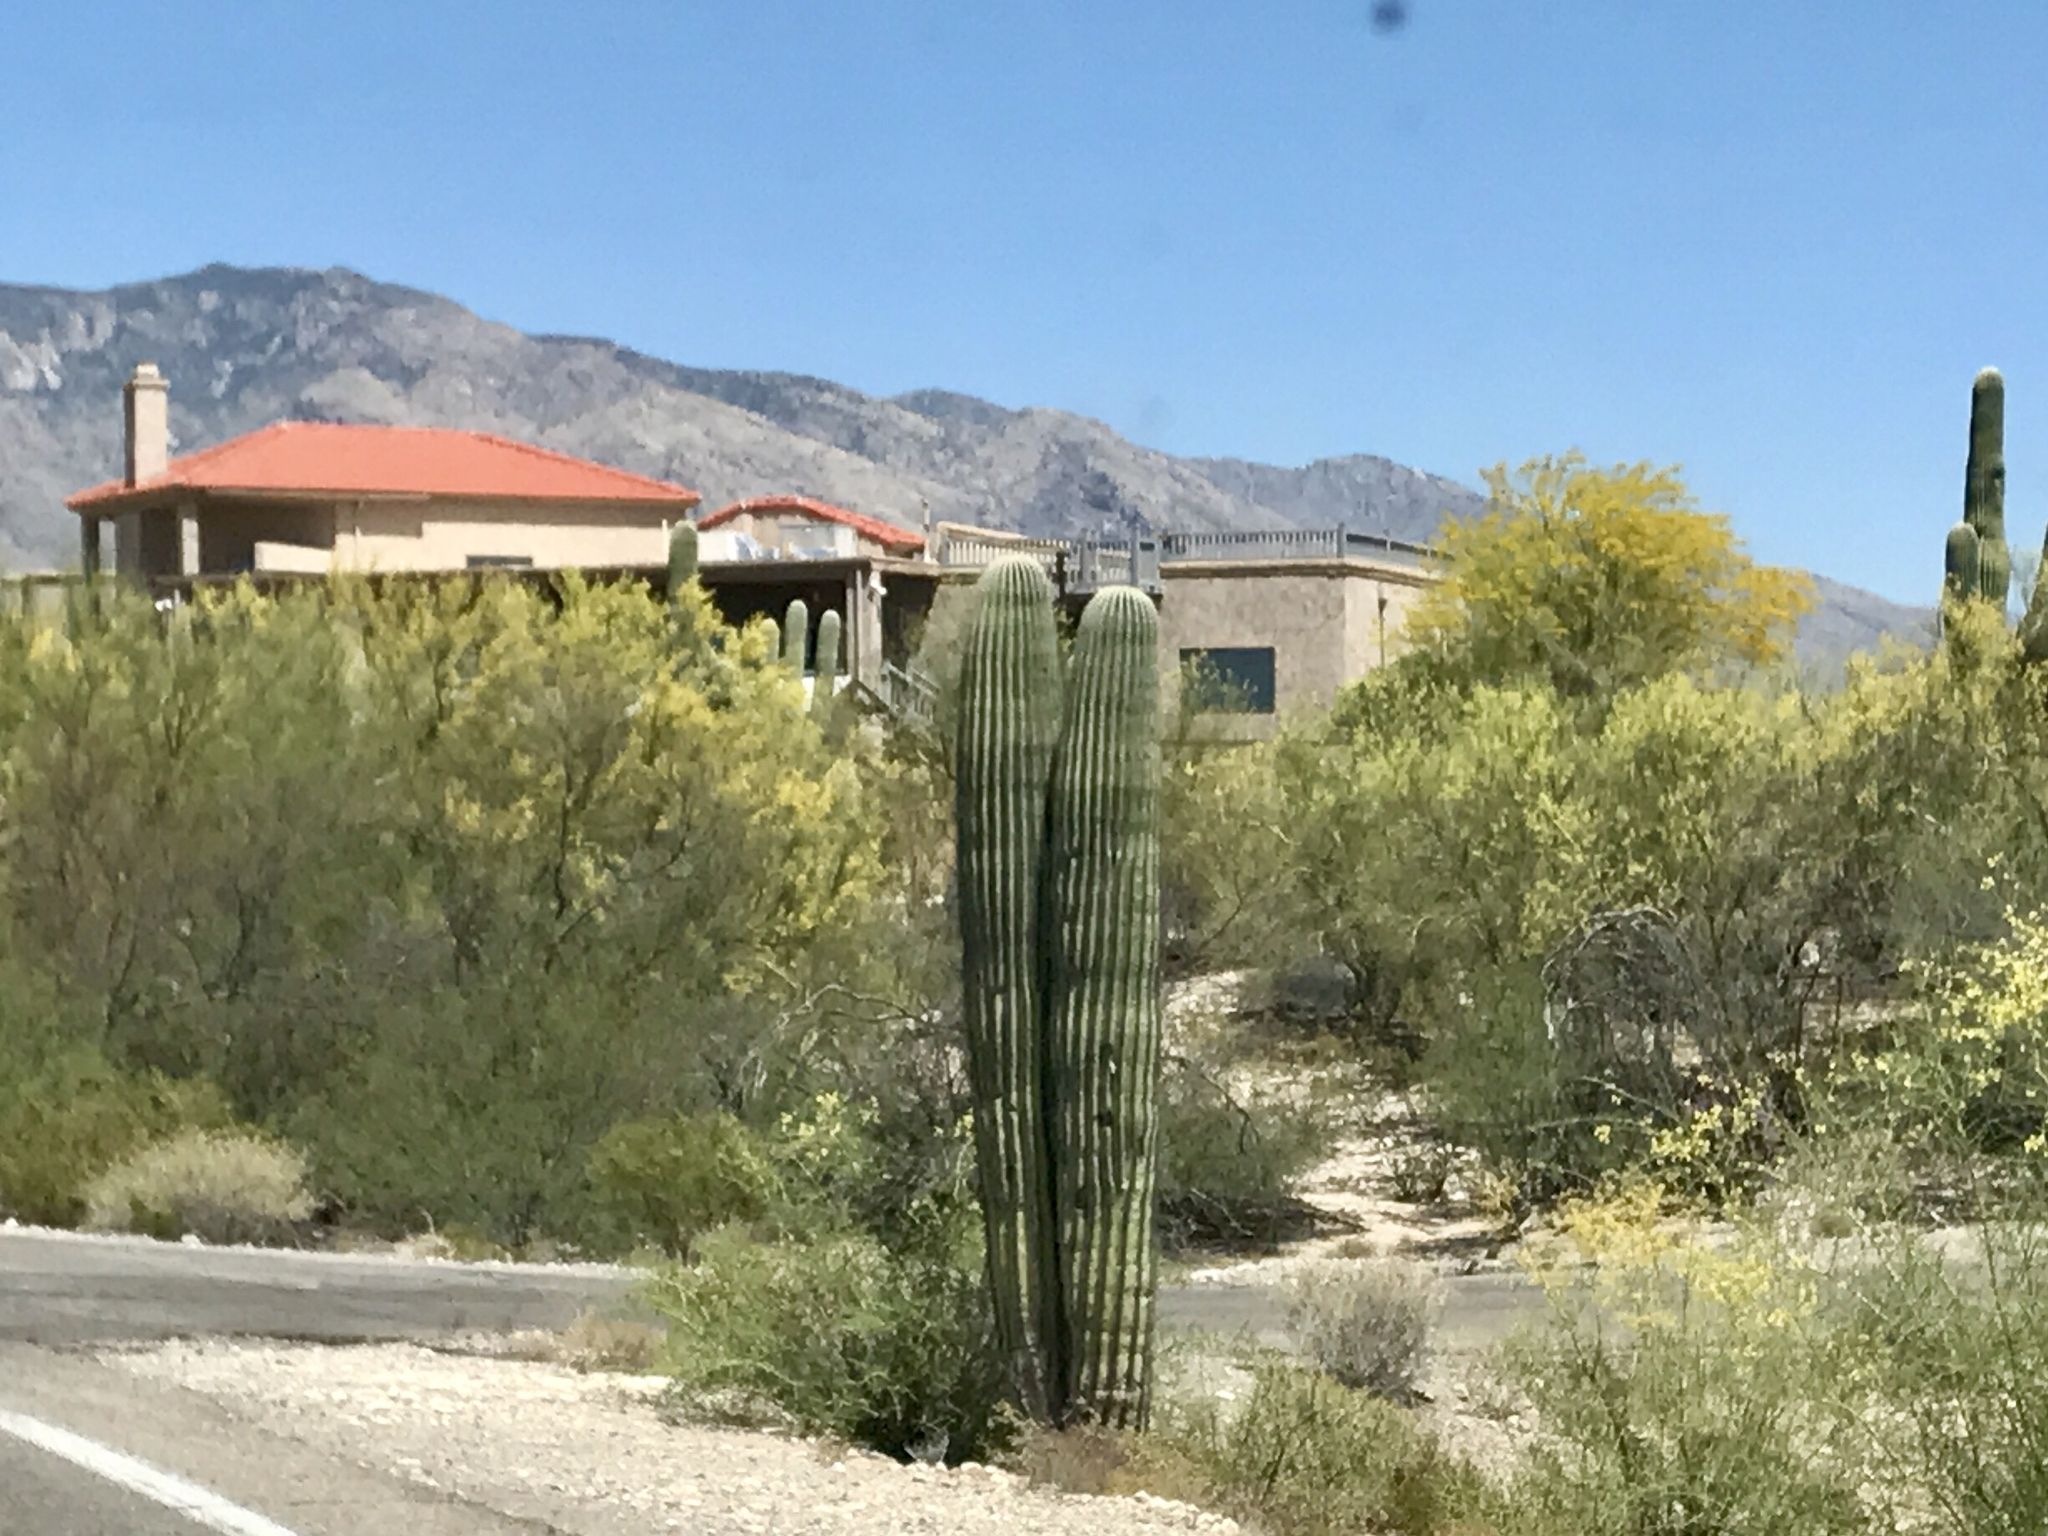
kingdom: Plantae
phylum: Tracheophyta
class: Magnoliopsida
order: Caryophyllales
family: Cactaceae
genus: Carnegiea
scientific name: Carnegiea gigantea
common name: Saguaro
